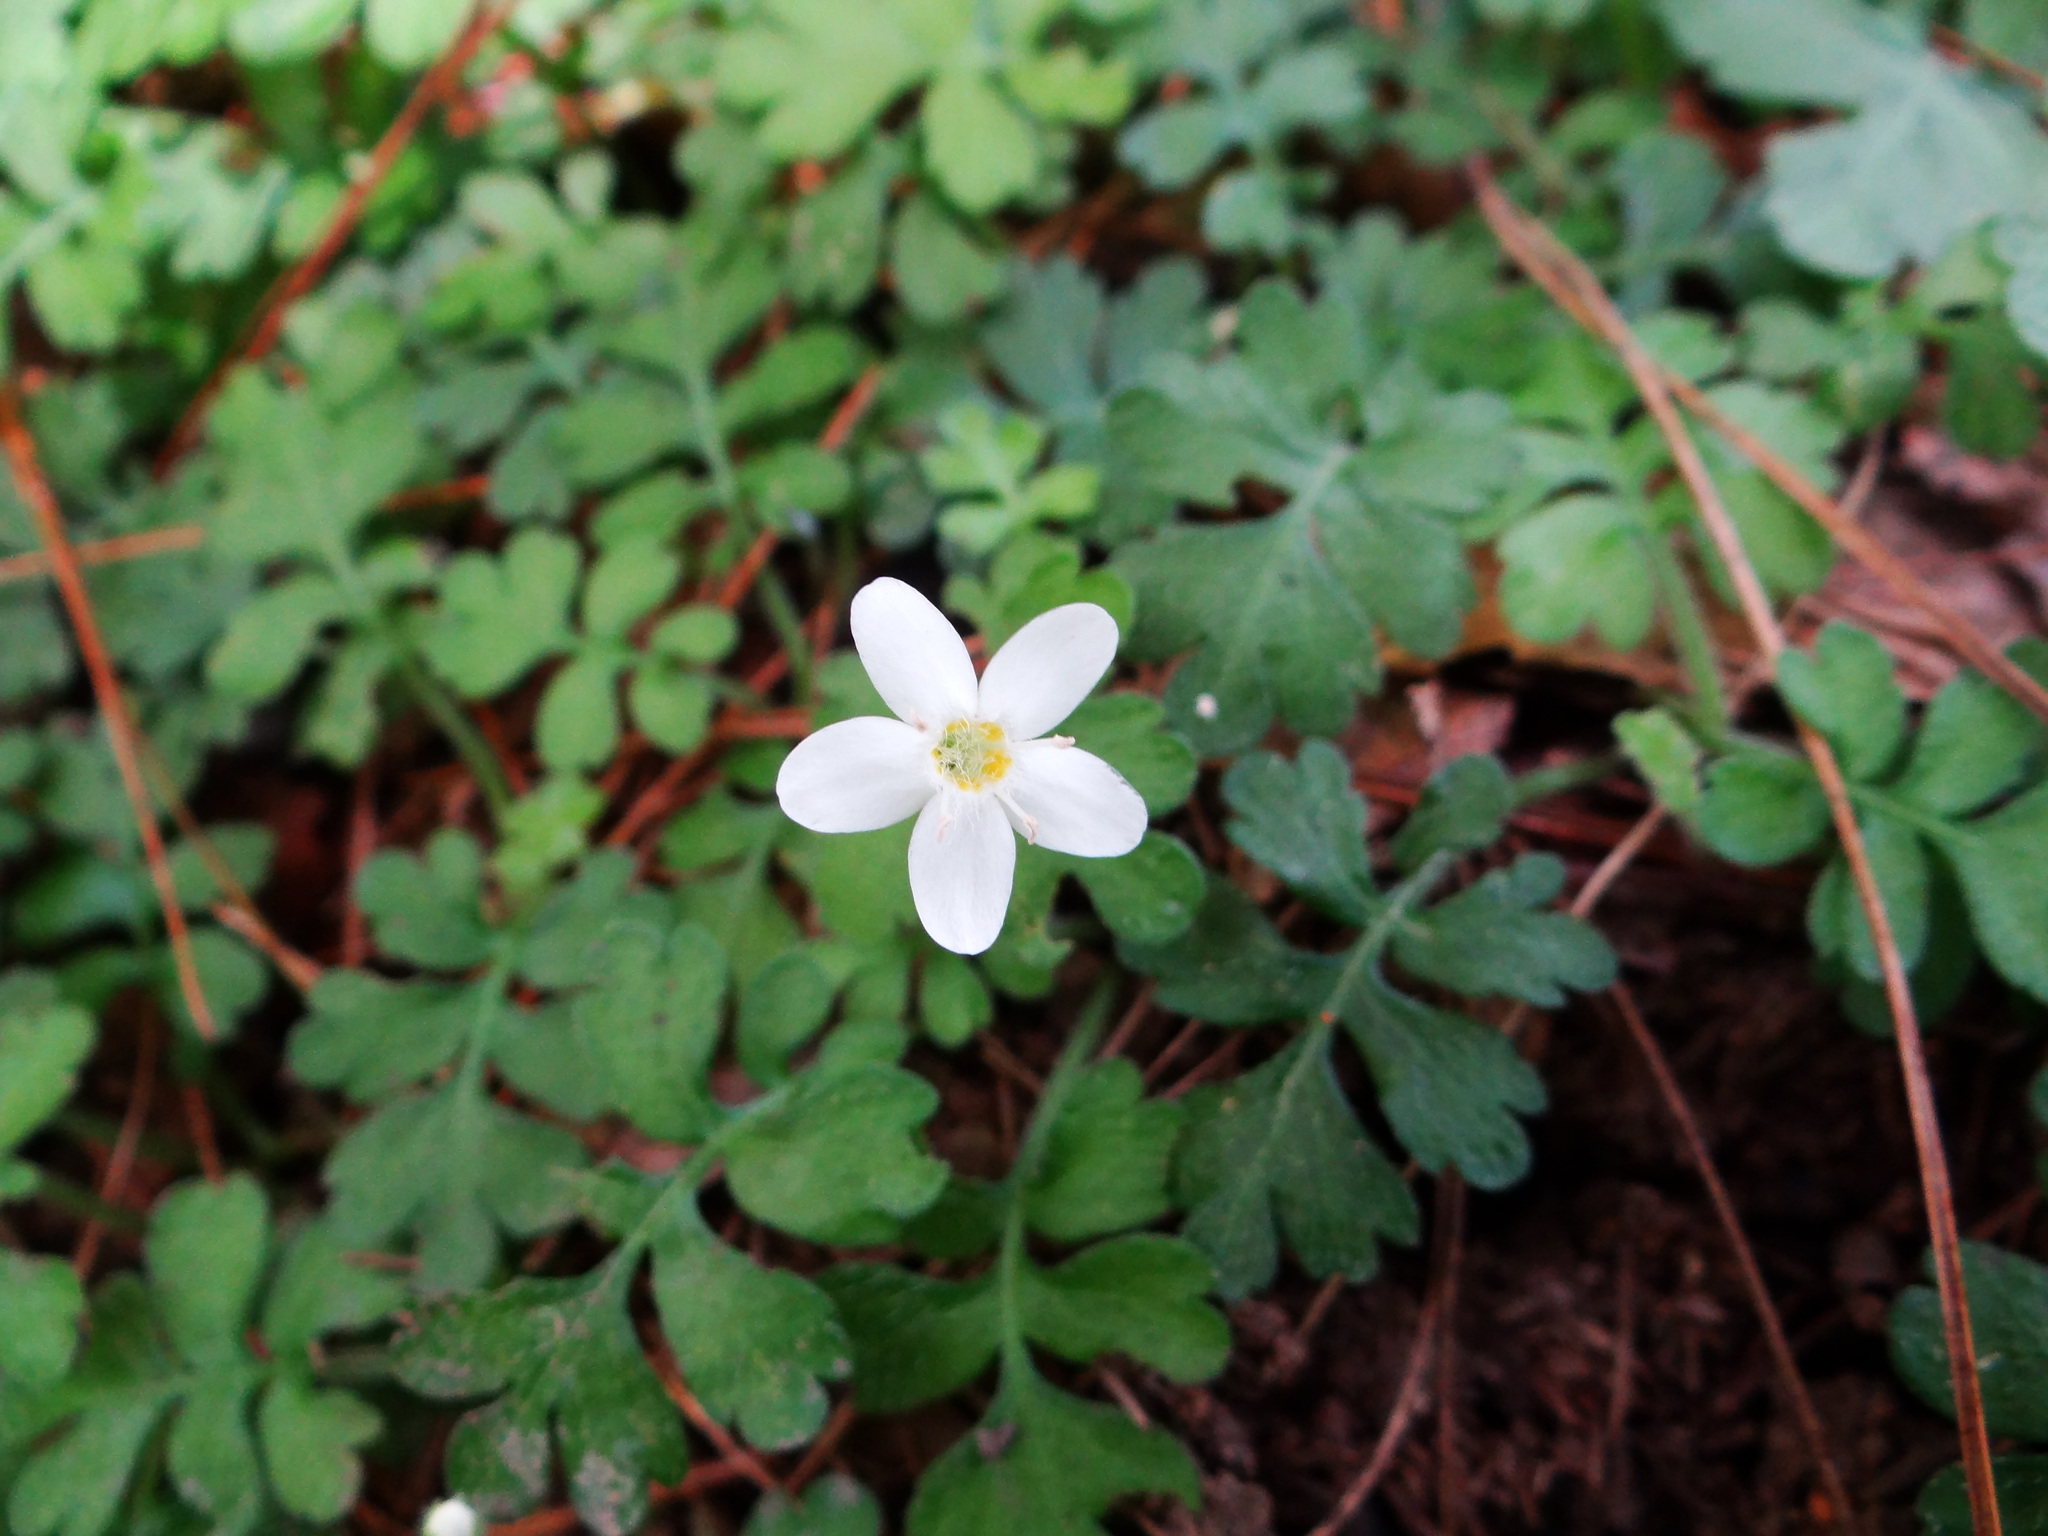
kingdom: Plantae
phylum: Tracheophyta
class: Magnoliopsida
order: Lamiales
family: Plantaginaceae
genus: Ellisiophyllum
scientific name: Ellisiophyllum pinnatum
